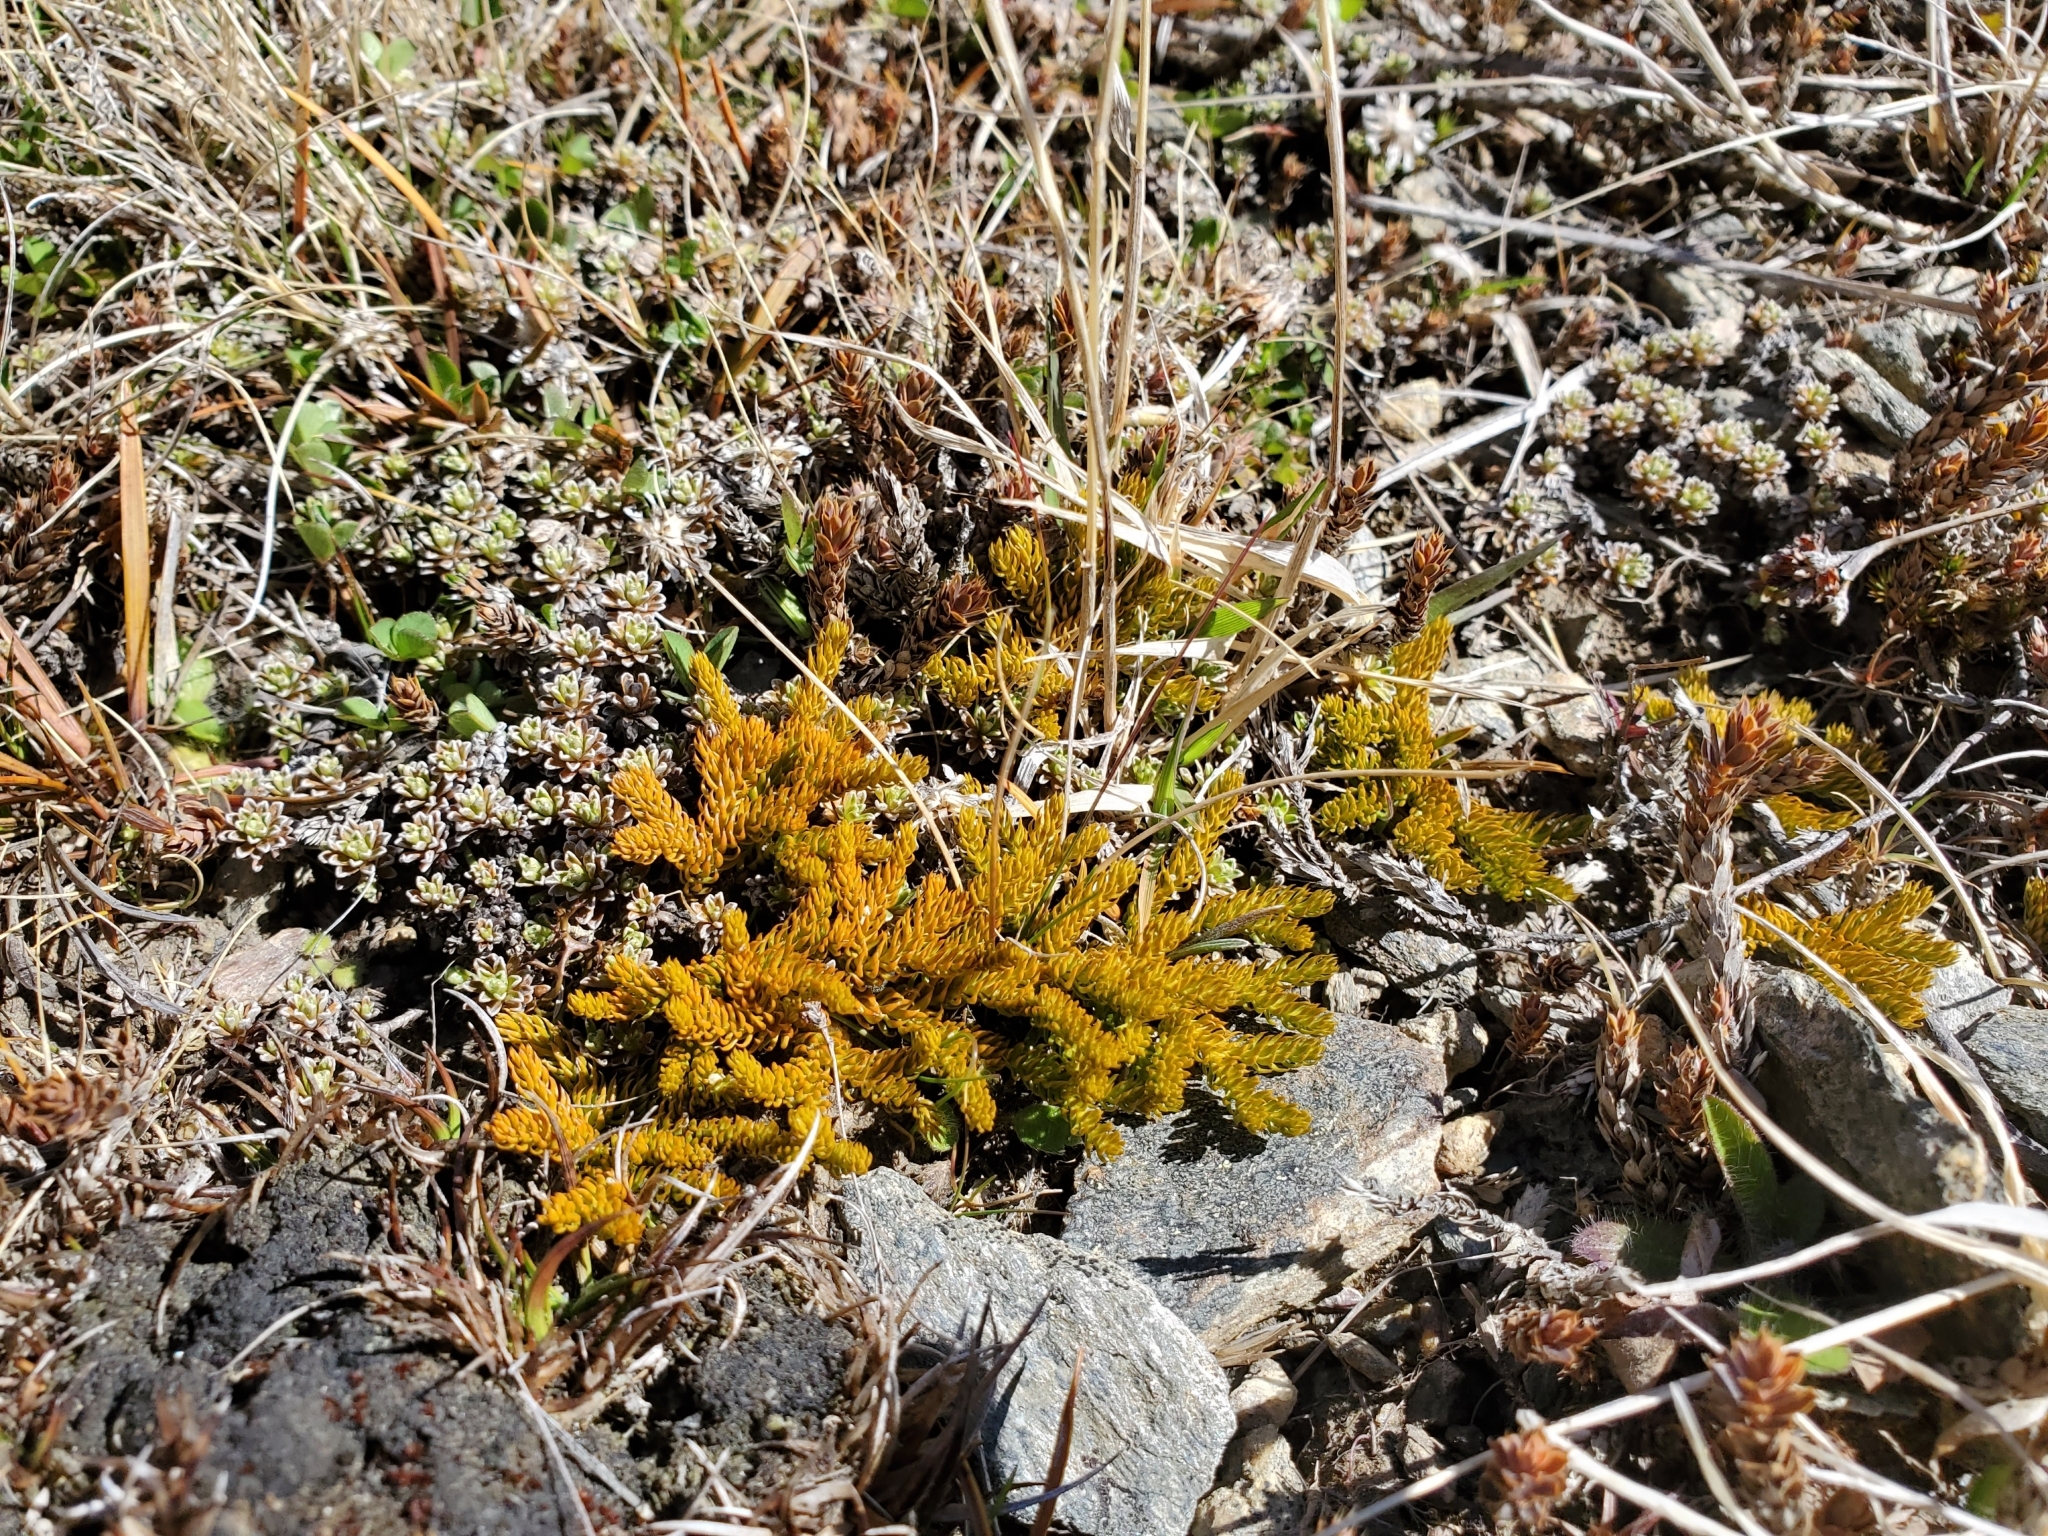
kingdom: Plantae
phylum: Tracheophyta
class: Lycopodiopsida
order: Lycopodiales
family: Lycopodiaceae
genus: Austrolycopodium
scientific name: Austrolycopodium fastigiatum
